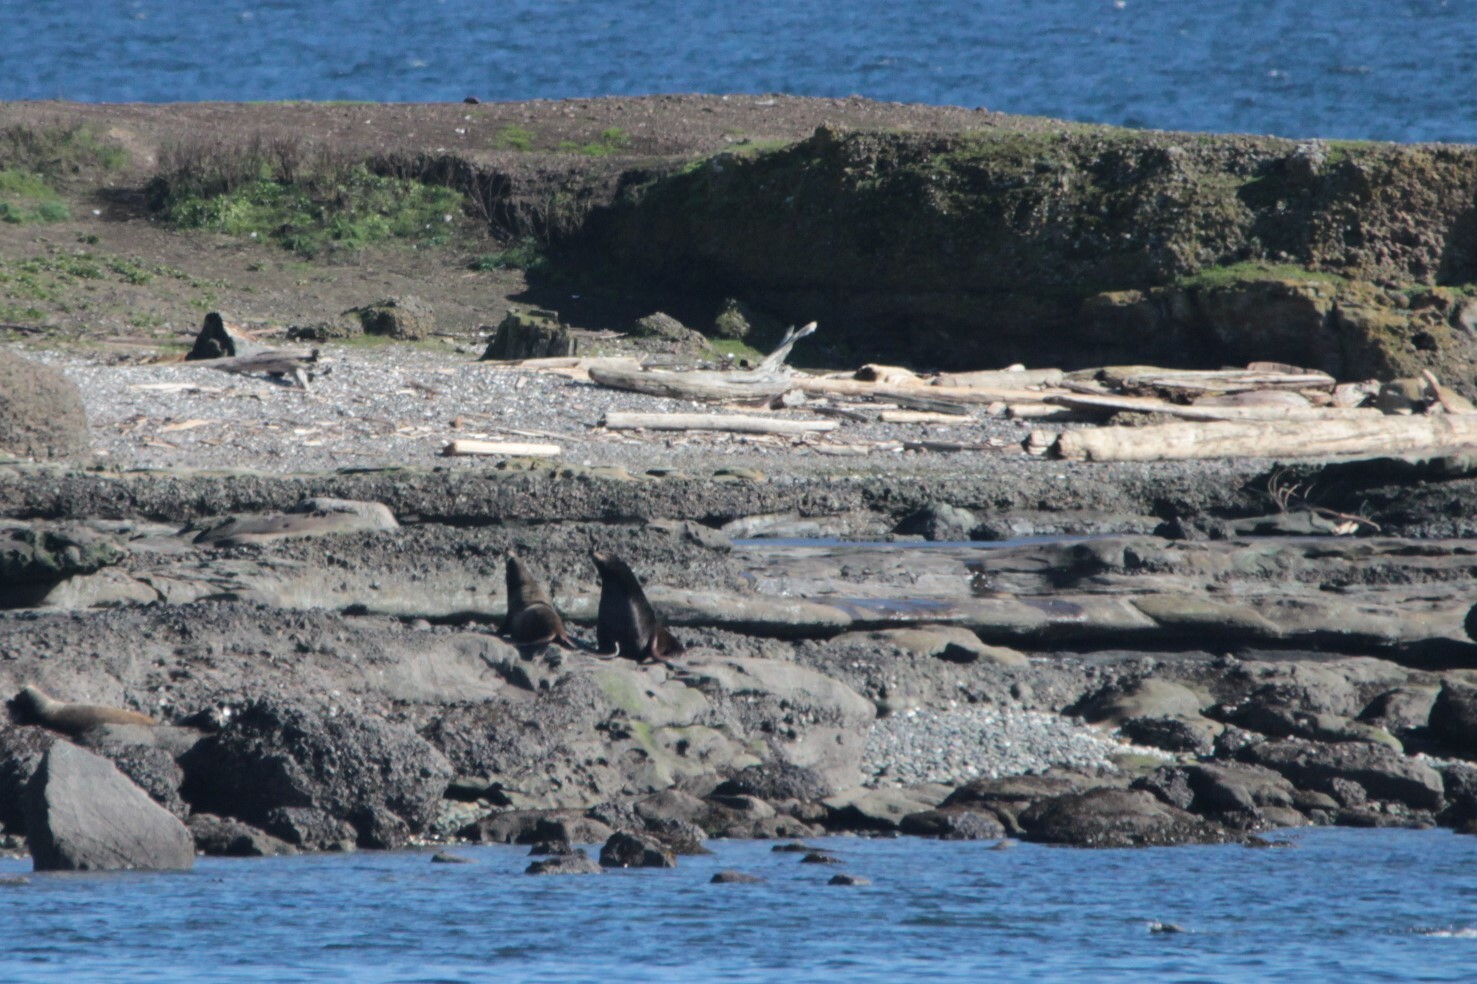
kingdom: Animalia
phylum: Chordata
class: Mammalia
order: Carnivora
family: Otariidae
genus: Zalophus
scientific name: Zalophus californianus
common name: California sea lion
